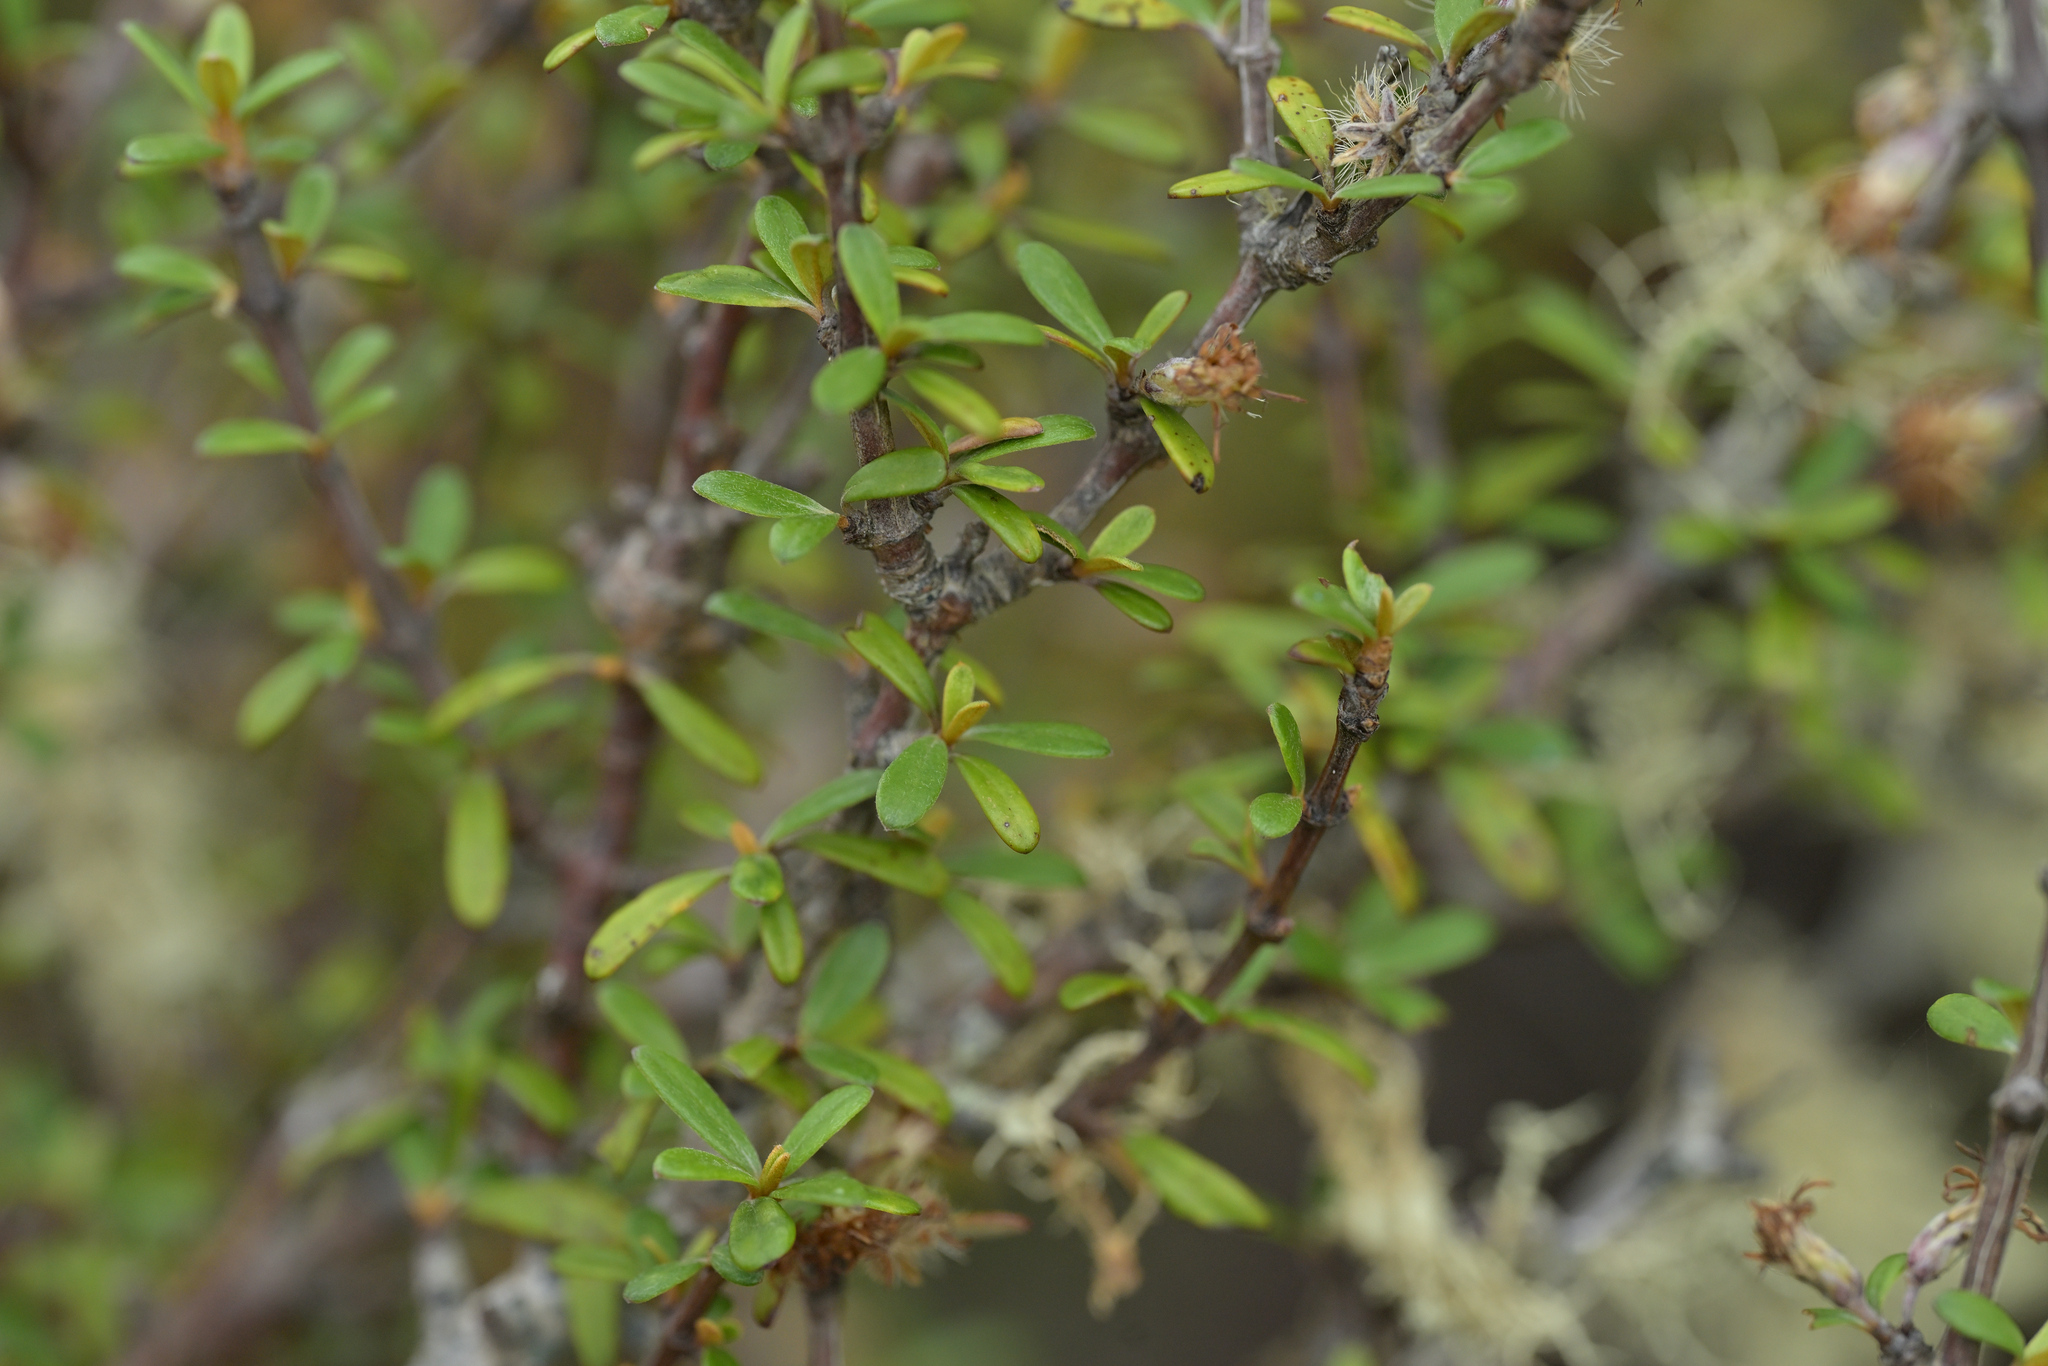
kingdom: Plantae
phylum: Tracheophyta
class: Magnoliopsida
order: Asterales
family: Asteraceae
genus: Olearia
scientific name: Olearia virgata
